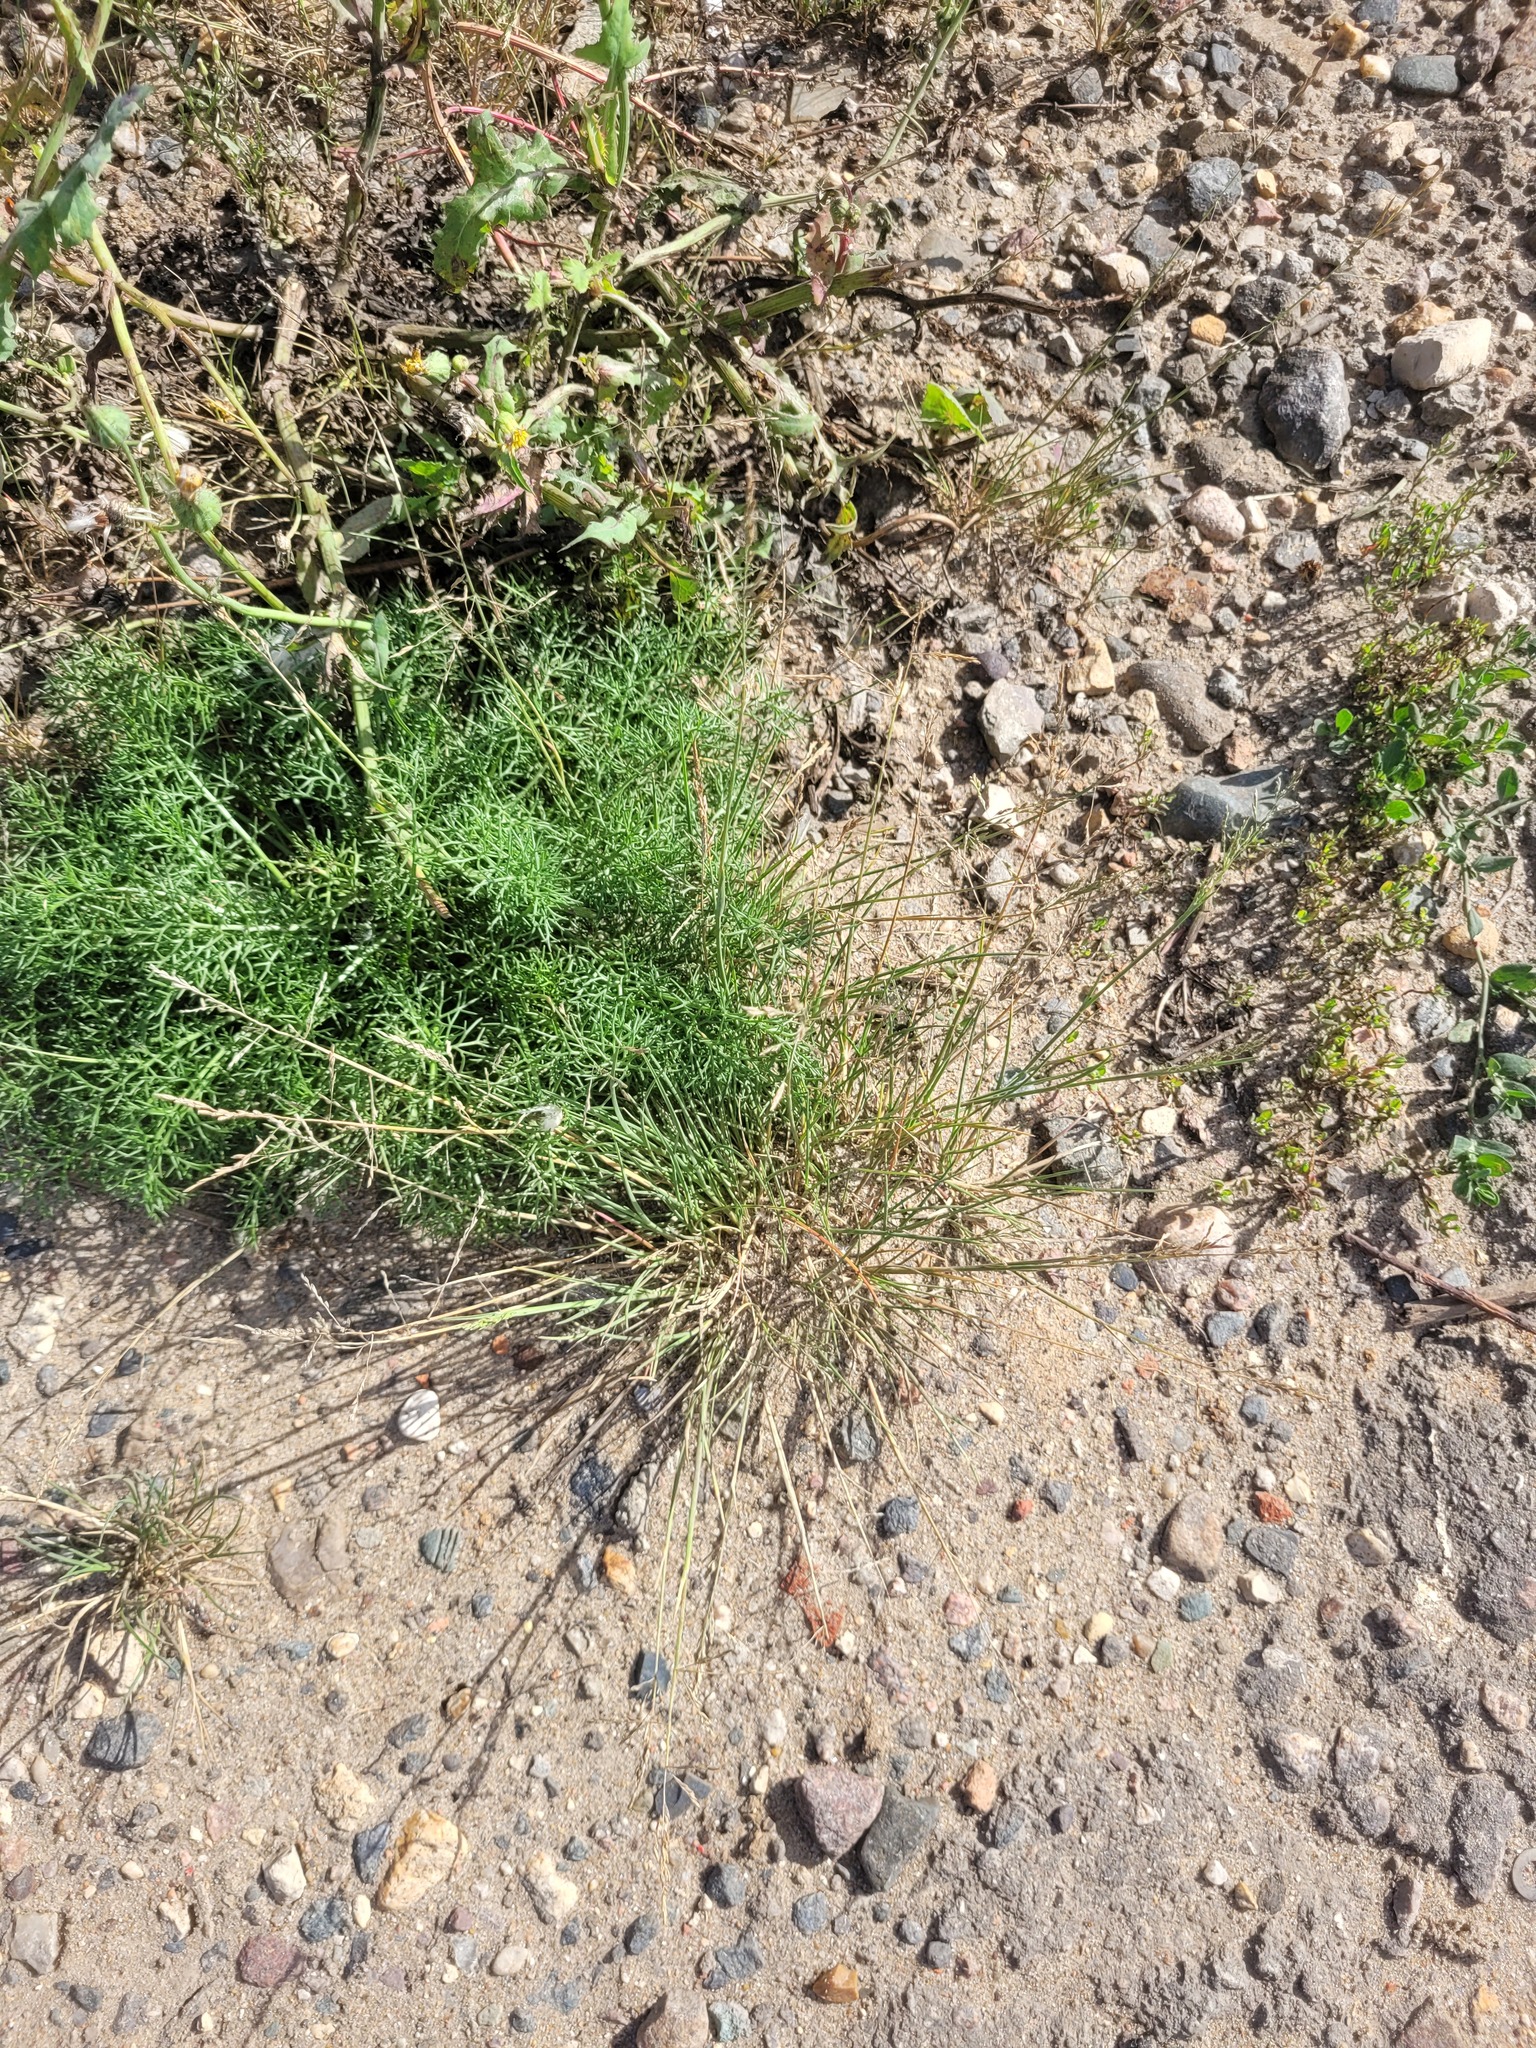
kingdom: Plantae
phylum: Tracheophyta
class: Liliopsida
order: Poales
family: Poaceae
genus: Puccinellia
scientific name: Puccinellia distans
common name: Weeping alkaligrass
